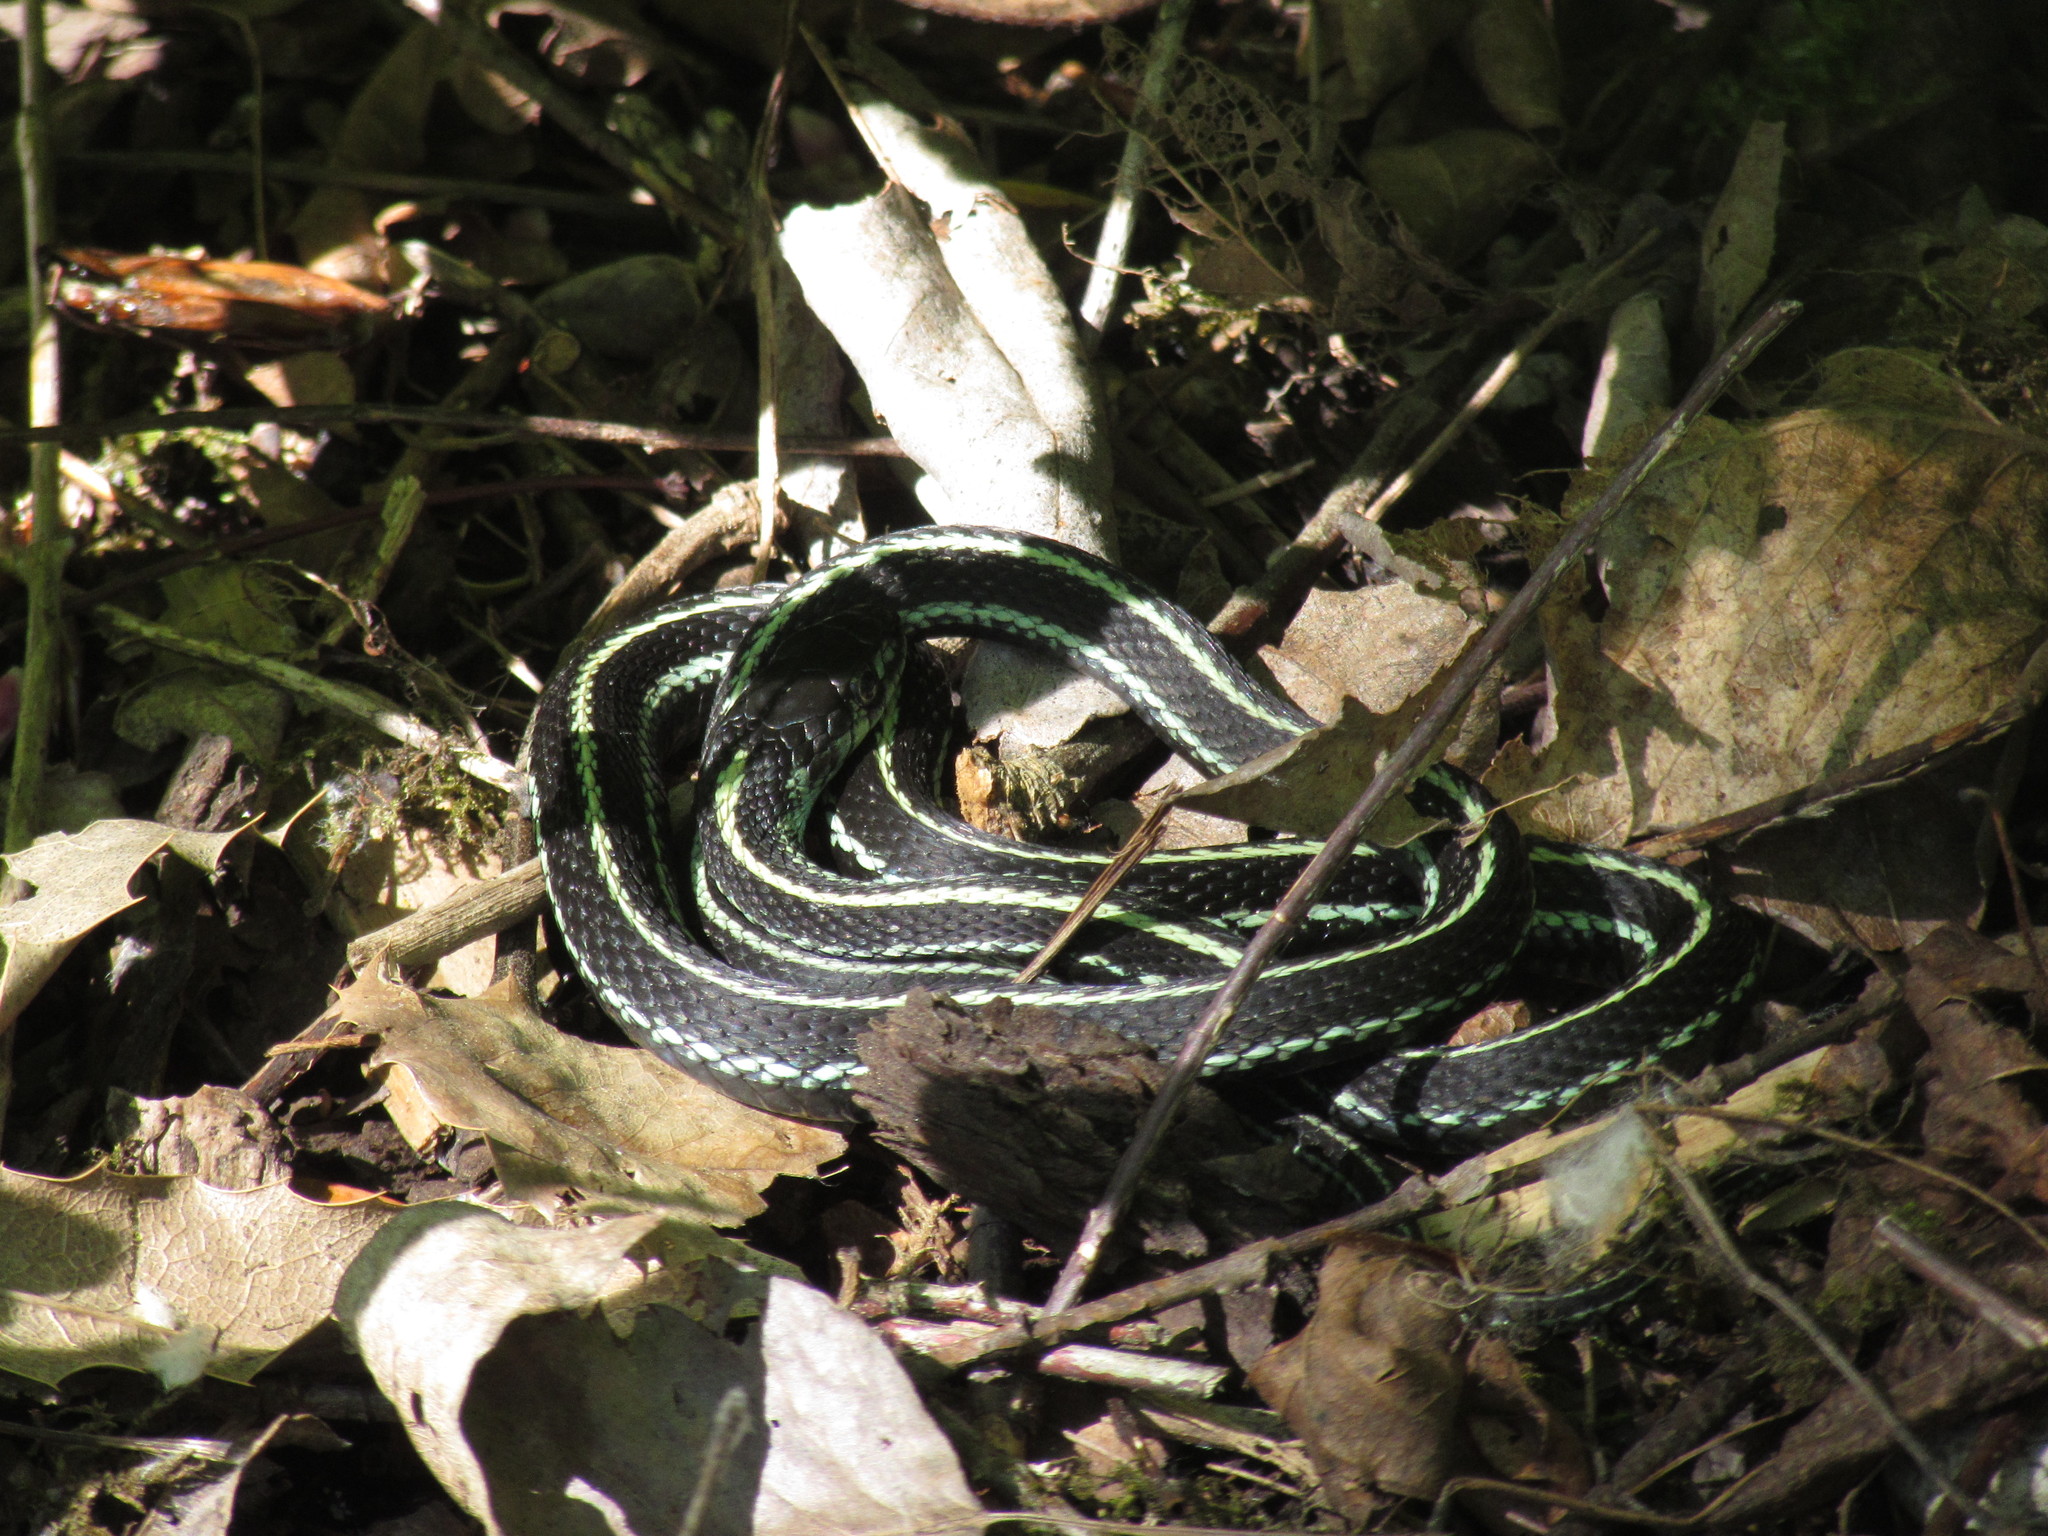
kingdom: Animalia
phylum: Chordata
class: Squamata
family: Colubridae
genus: Thamnophis
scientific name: Thamnophis sirtalis
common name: Common garter snake
